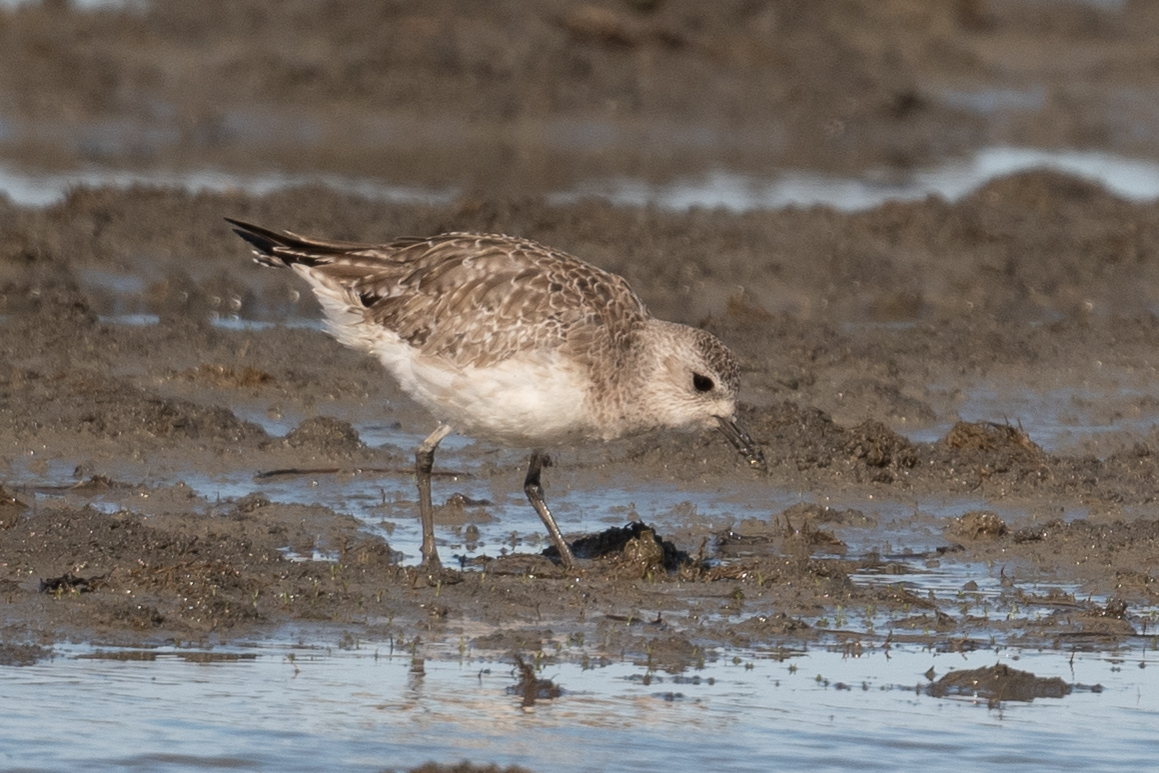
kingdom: Animalia
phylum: Chordata
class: Aves
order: Charadriiformes
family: Charadriidae
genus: Pluvialis
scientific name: Pluvialis squatarola
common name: Grey plover
